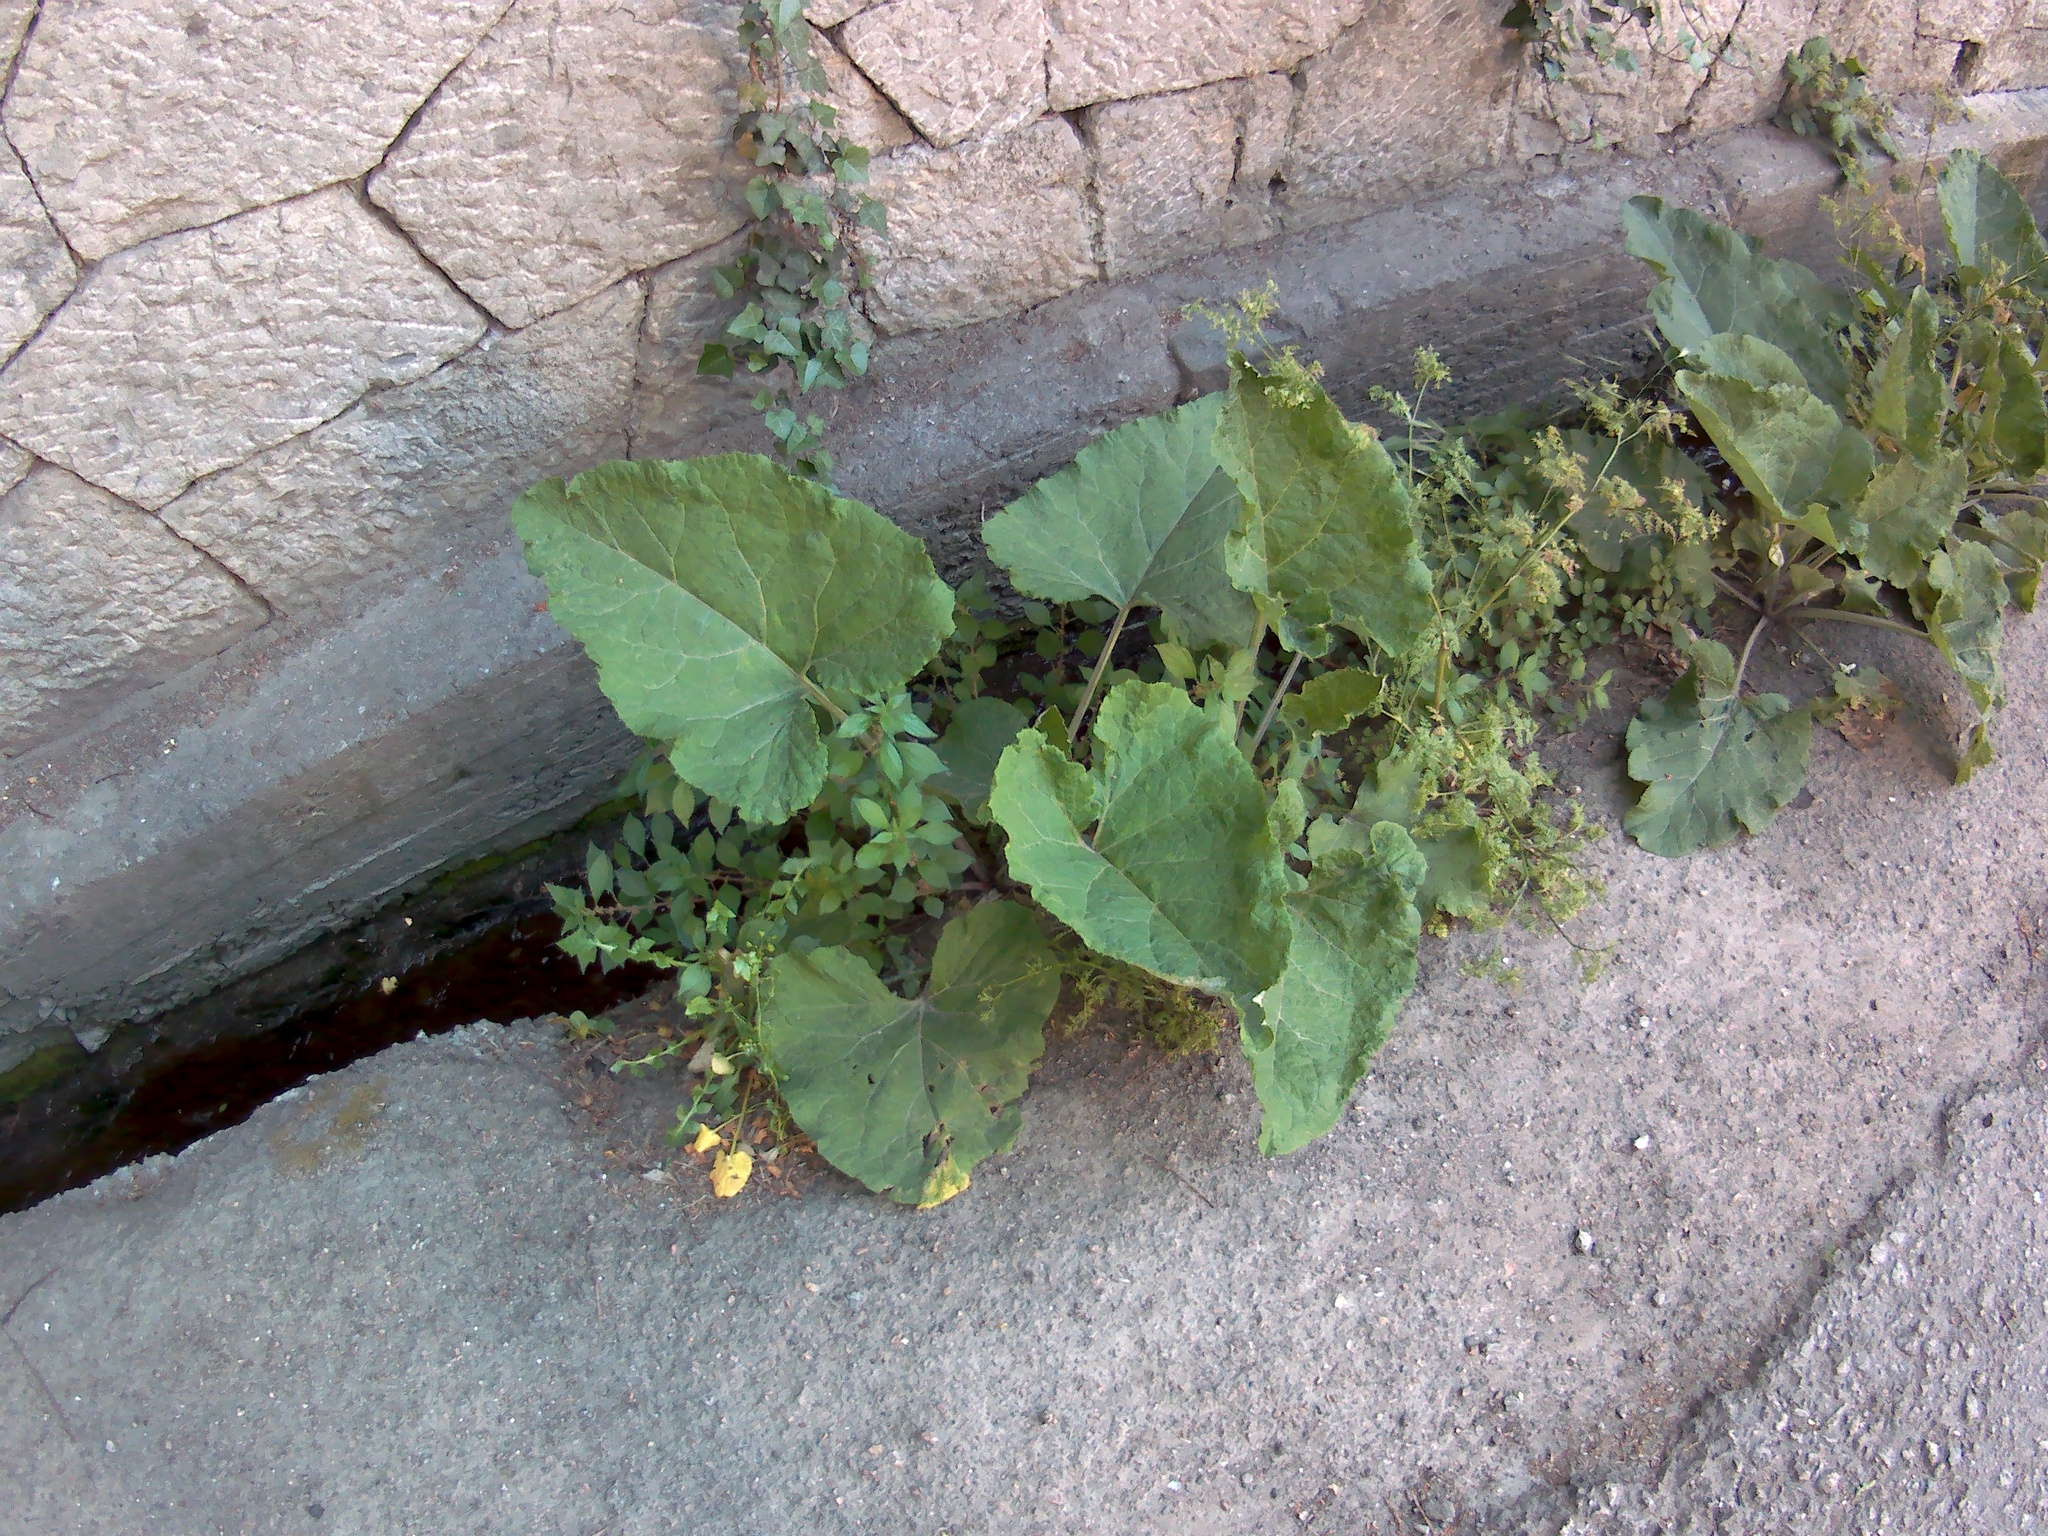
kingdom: Plantae
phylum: Tracheophyta
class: Magnoliopsida
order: Asterales
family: Asteraceae
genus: Arctium
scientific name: Arctium
